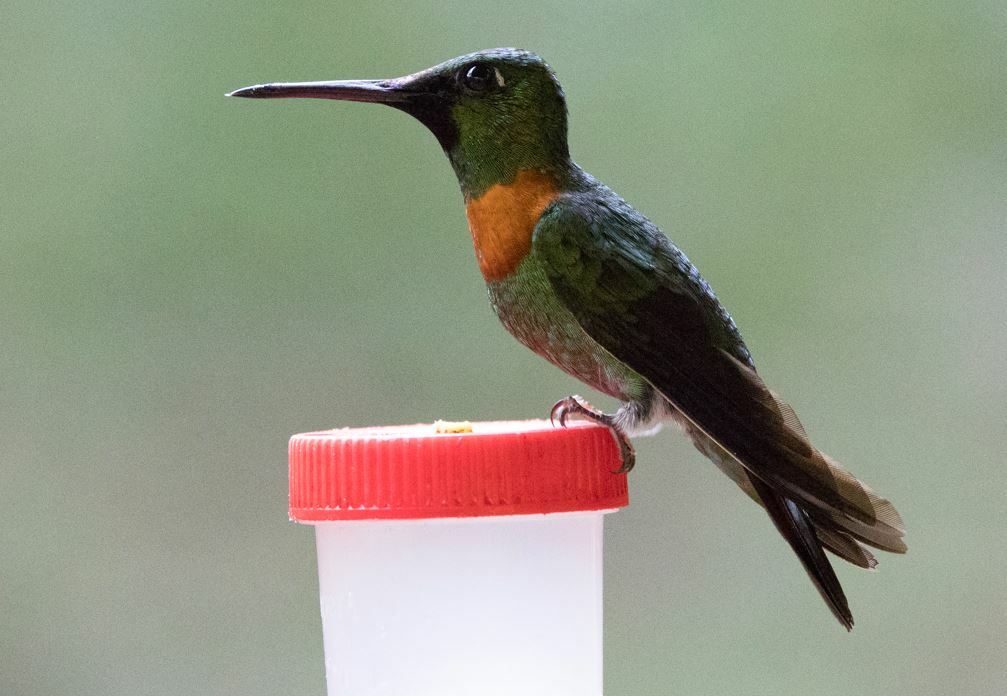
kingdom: Animalia
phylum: Chordata
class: Aves
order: Apodiformes
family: Trochilidae
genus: Heliodoxa
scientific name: Heliodoxa aurescens
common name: Gould's jewelfront
